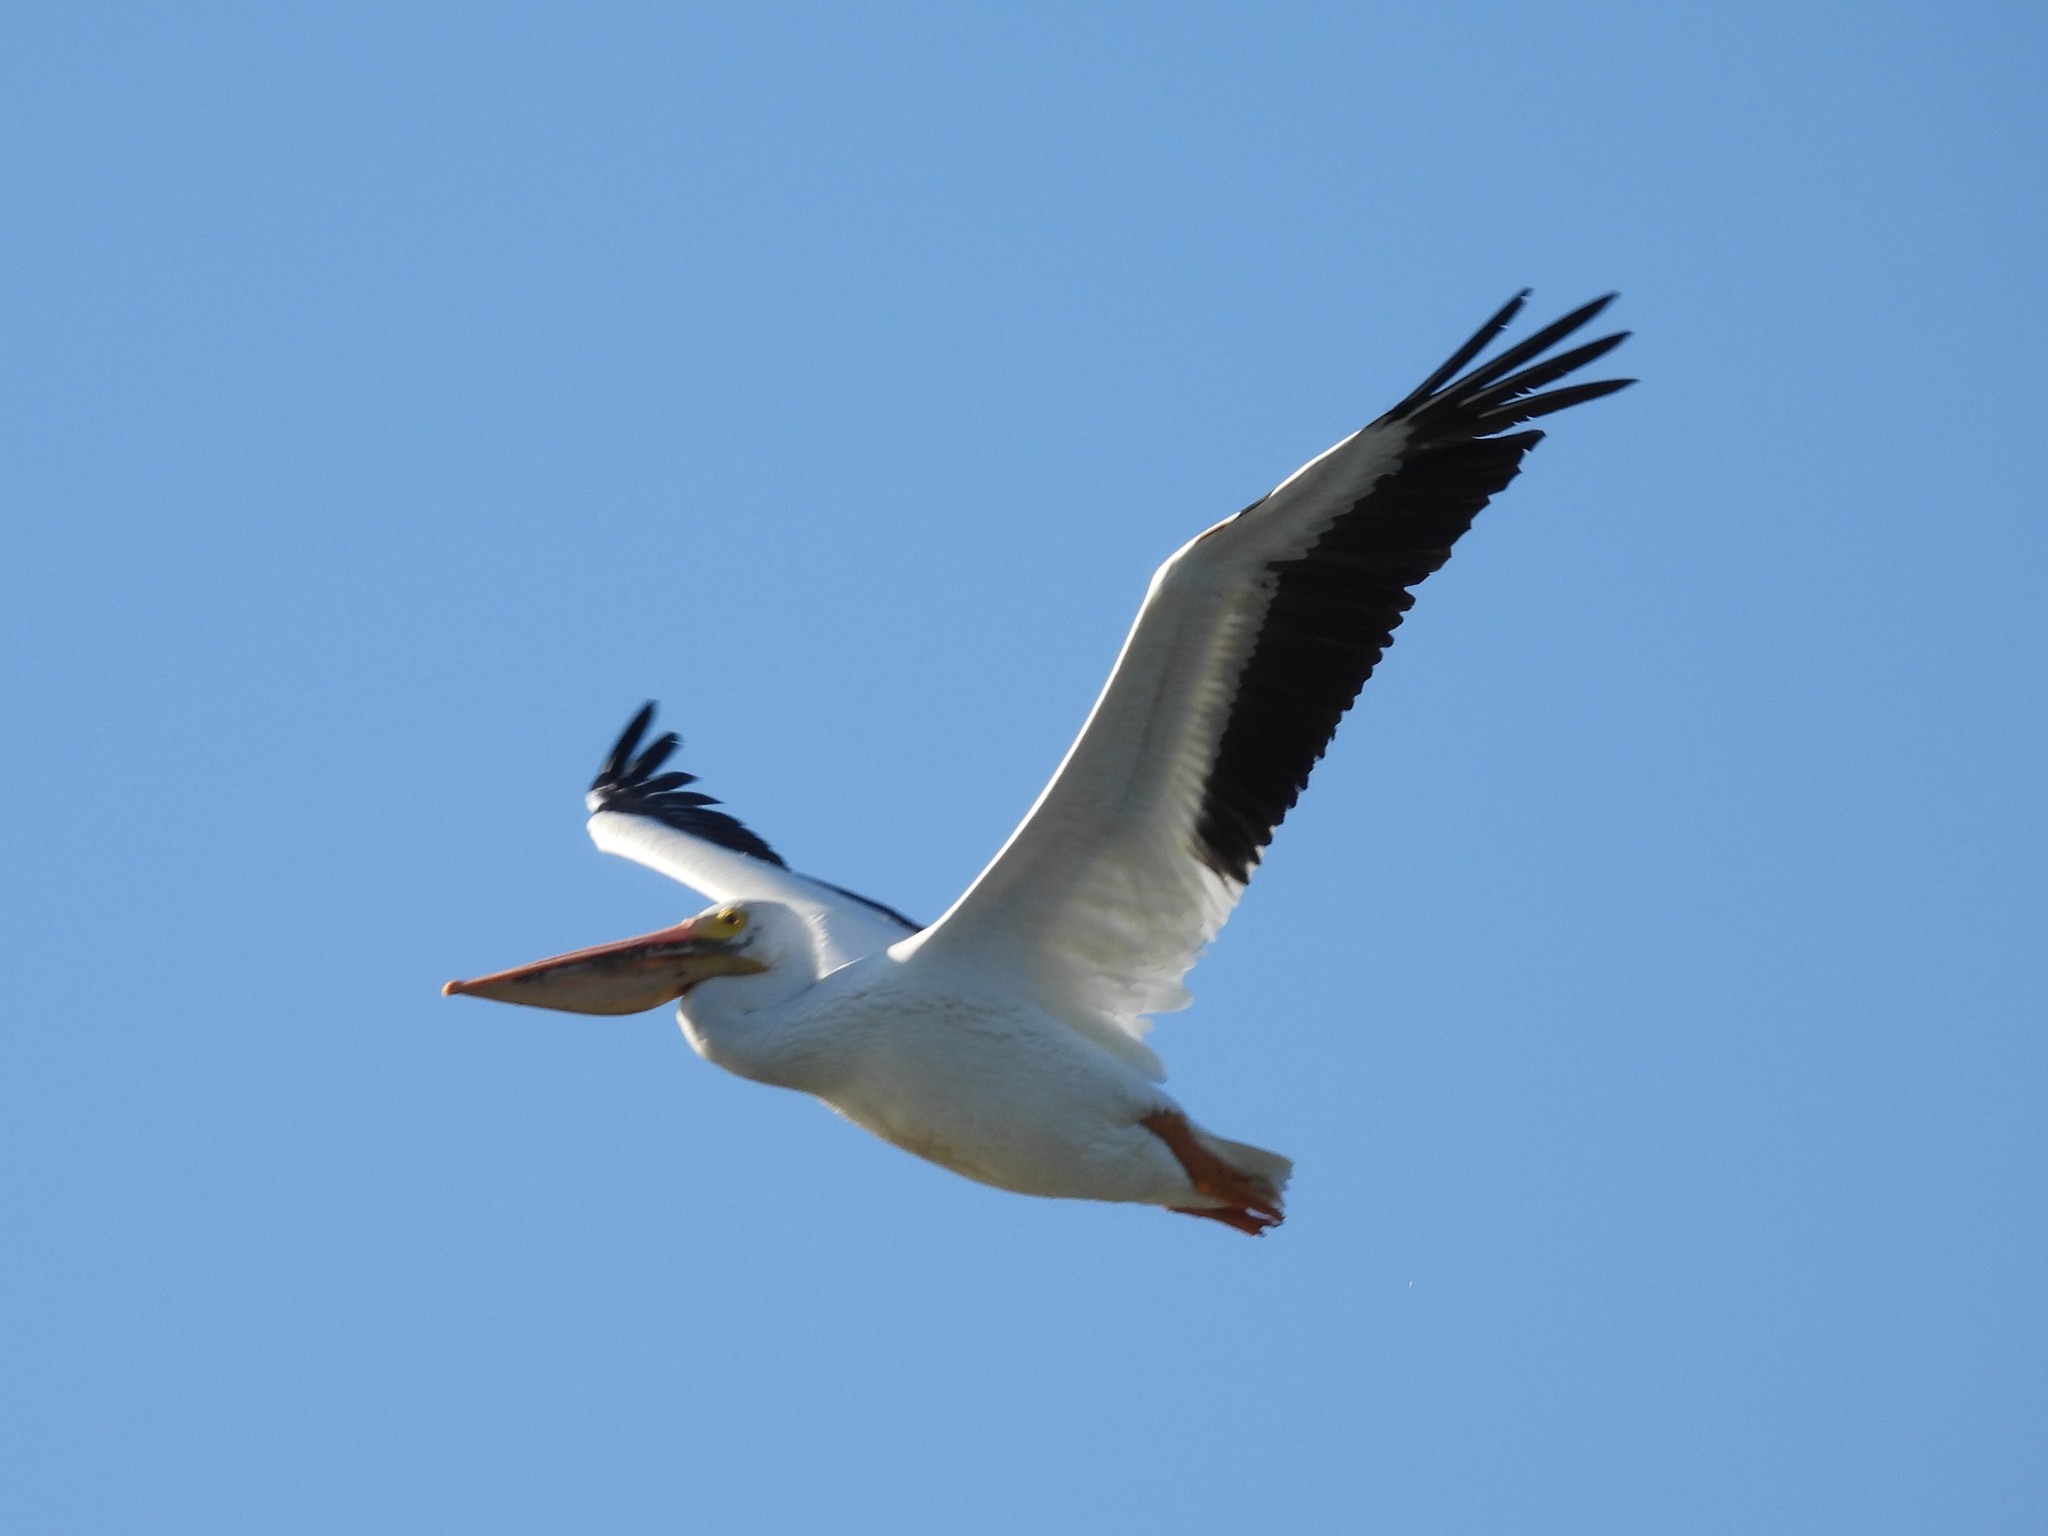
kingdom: Animalia
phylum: Chordata
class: Aves
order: Pelecaniformes
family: Pelecanidae
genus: Pelecanus
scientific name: Pelecanus erythrorhynchos
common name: American white pelican
